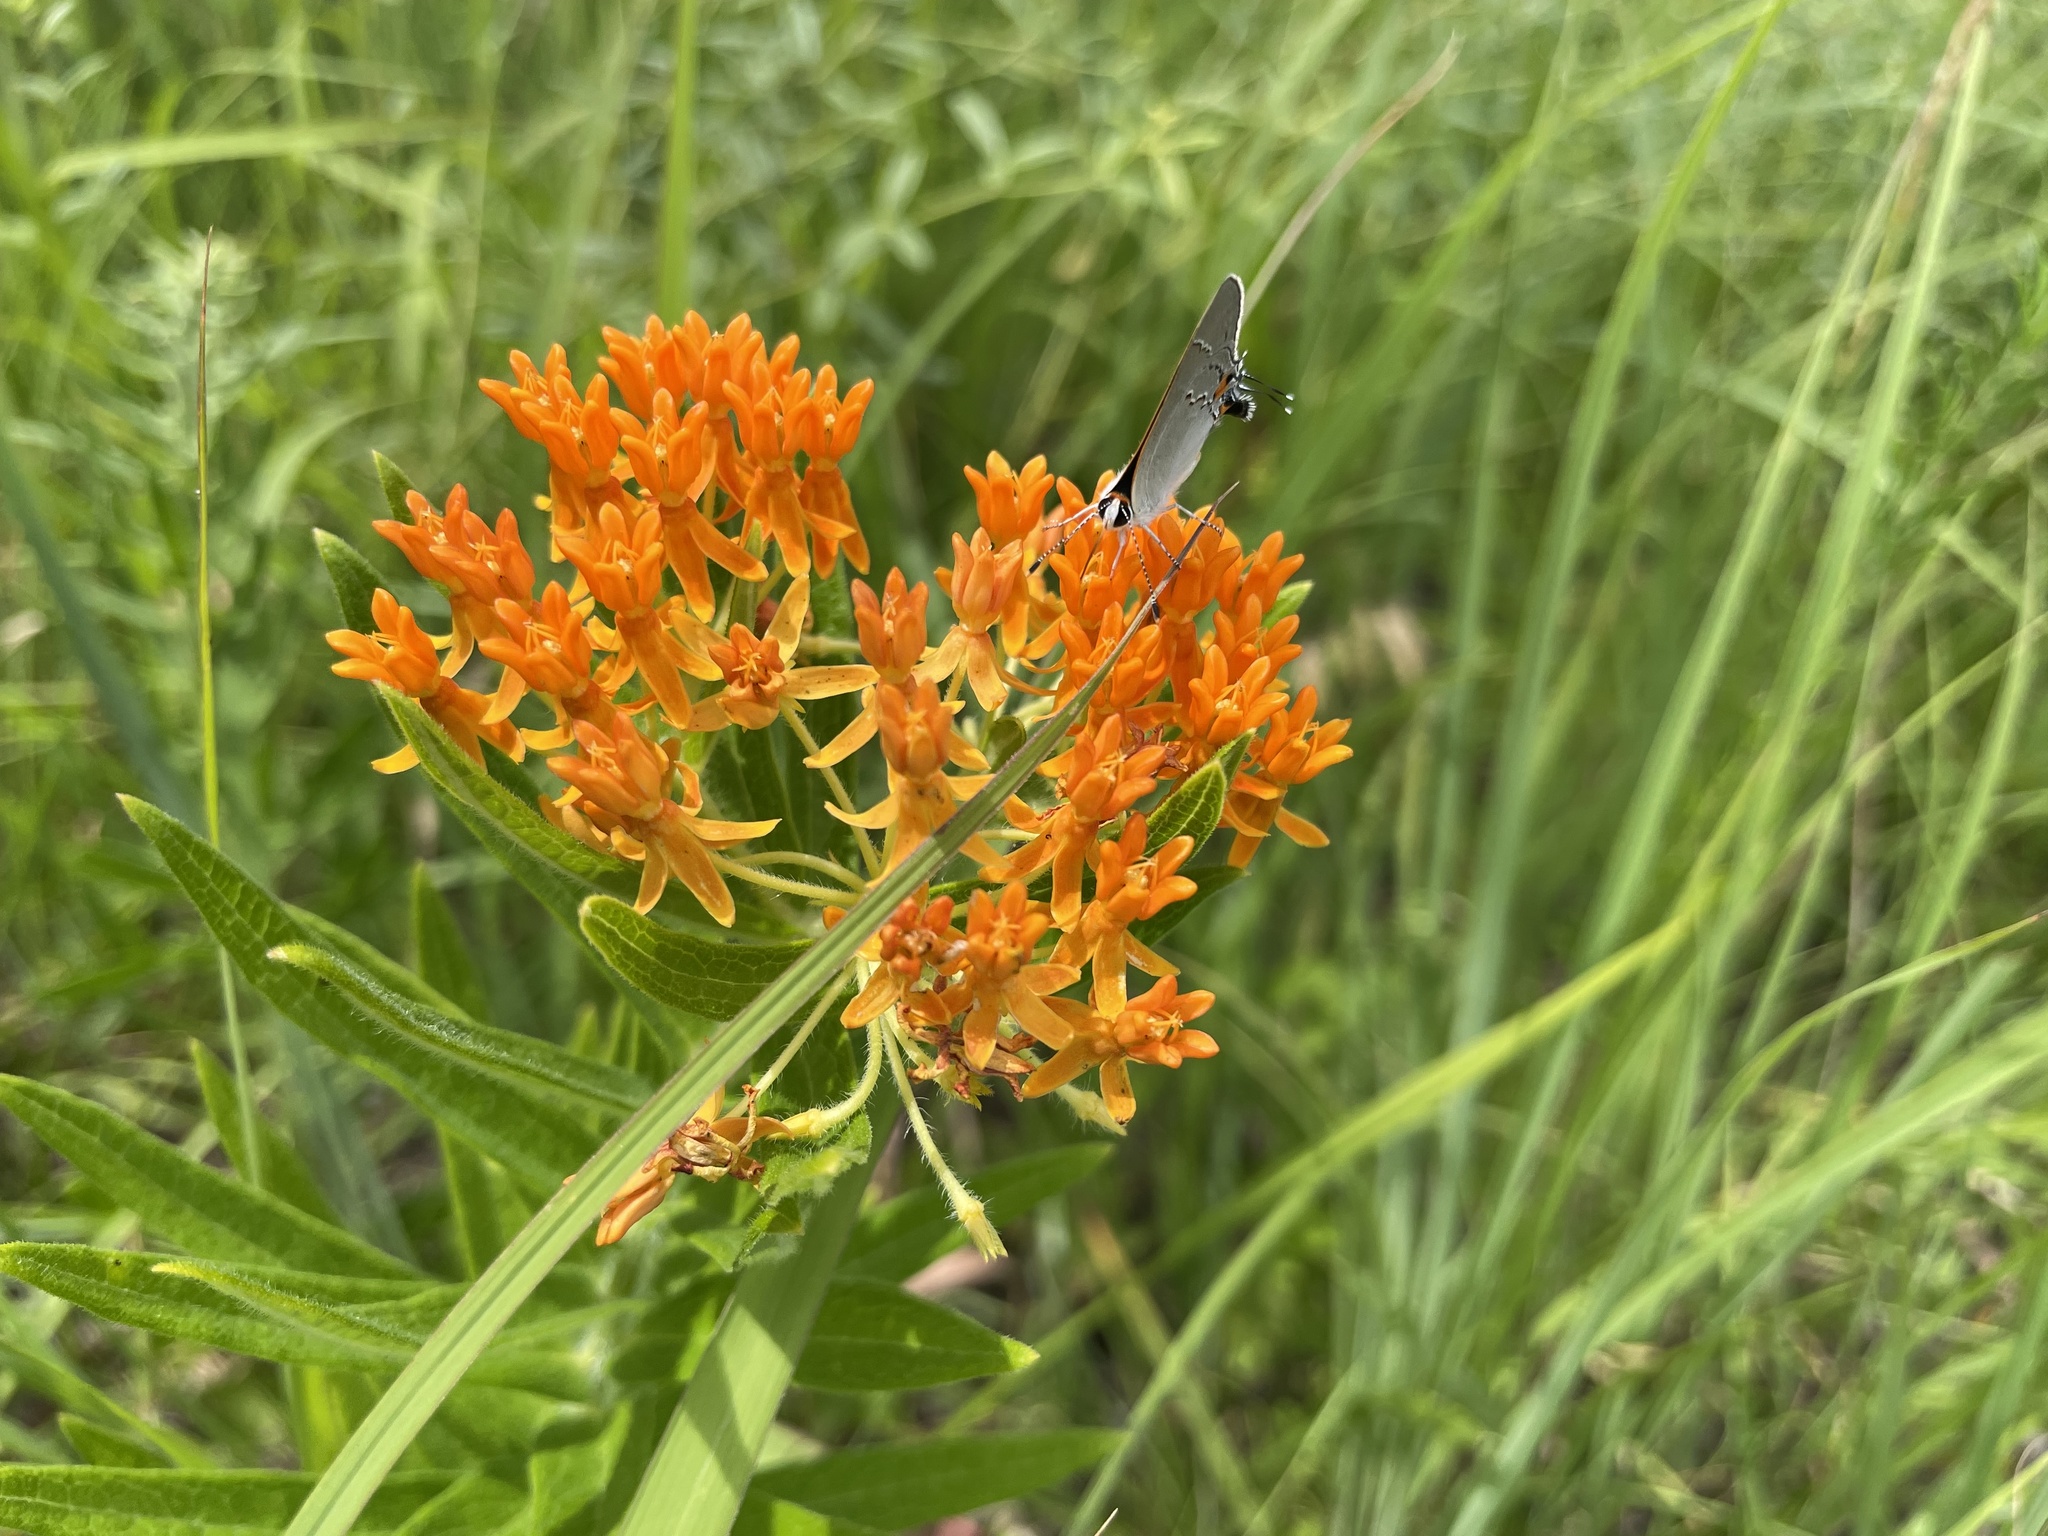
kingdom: Plantae
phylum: Tracheophyta
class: Magnoliopsida
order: Gentianales
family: Apocynaceae
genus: Asclepias
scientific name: Asclepias tuberosa
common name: Butterfly milkweed
